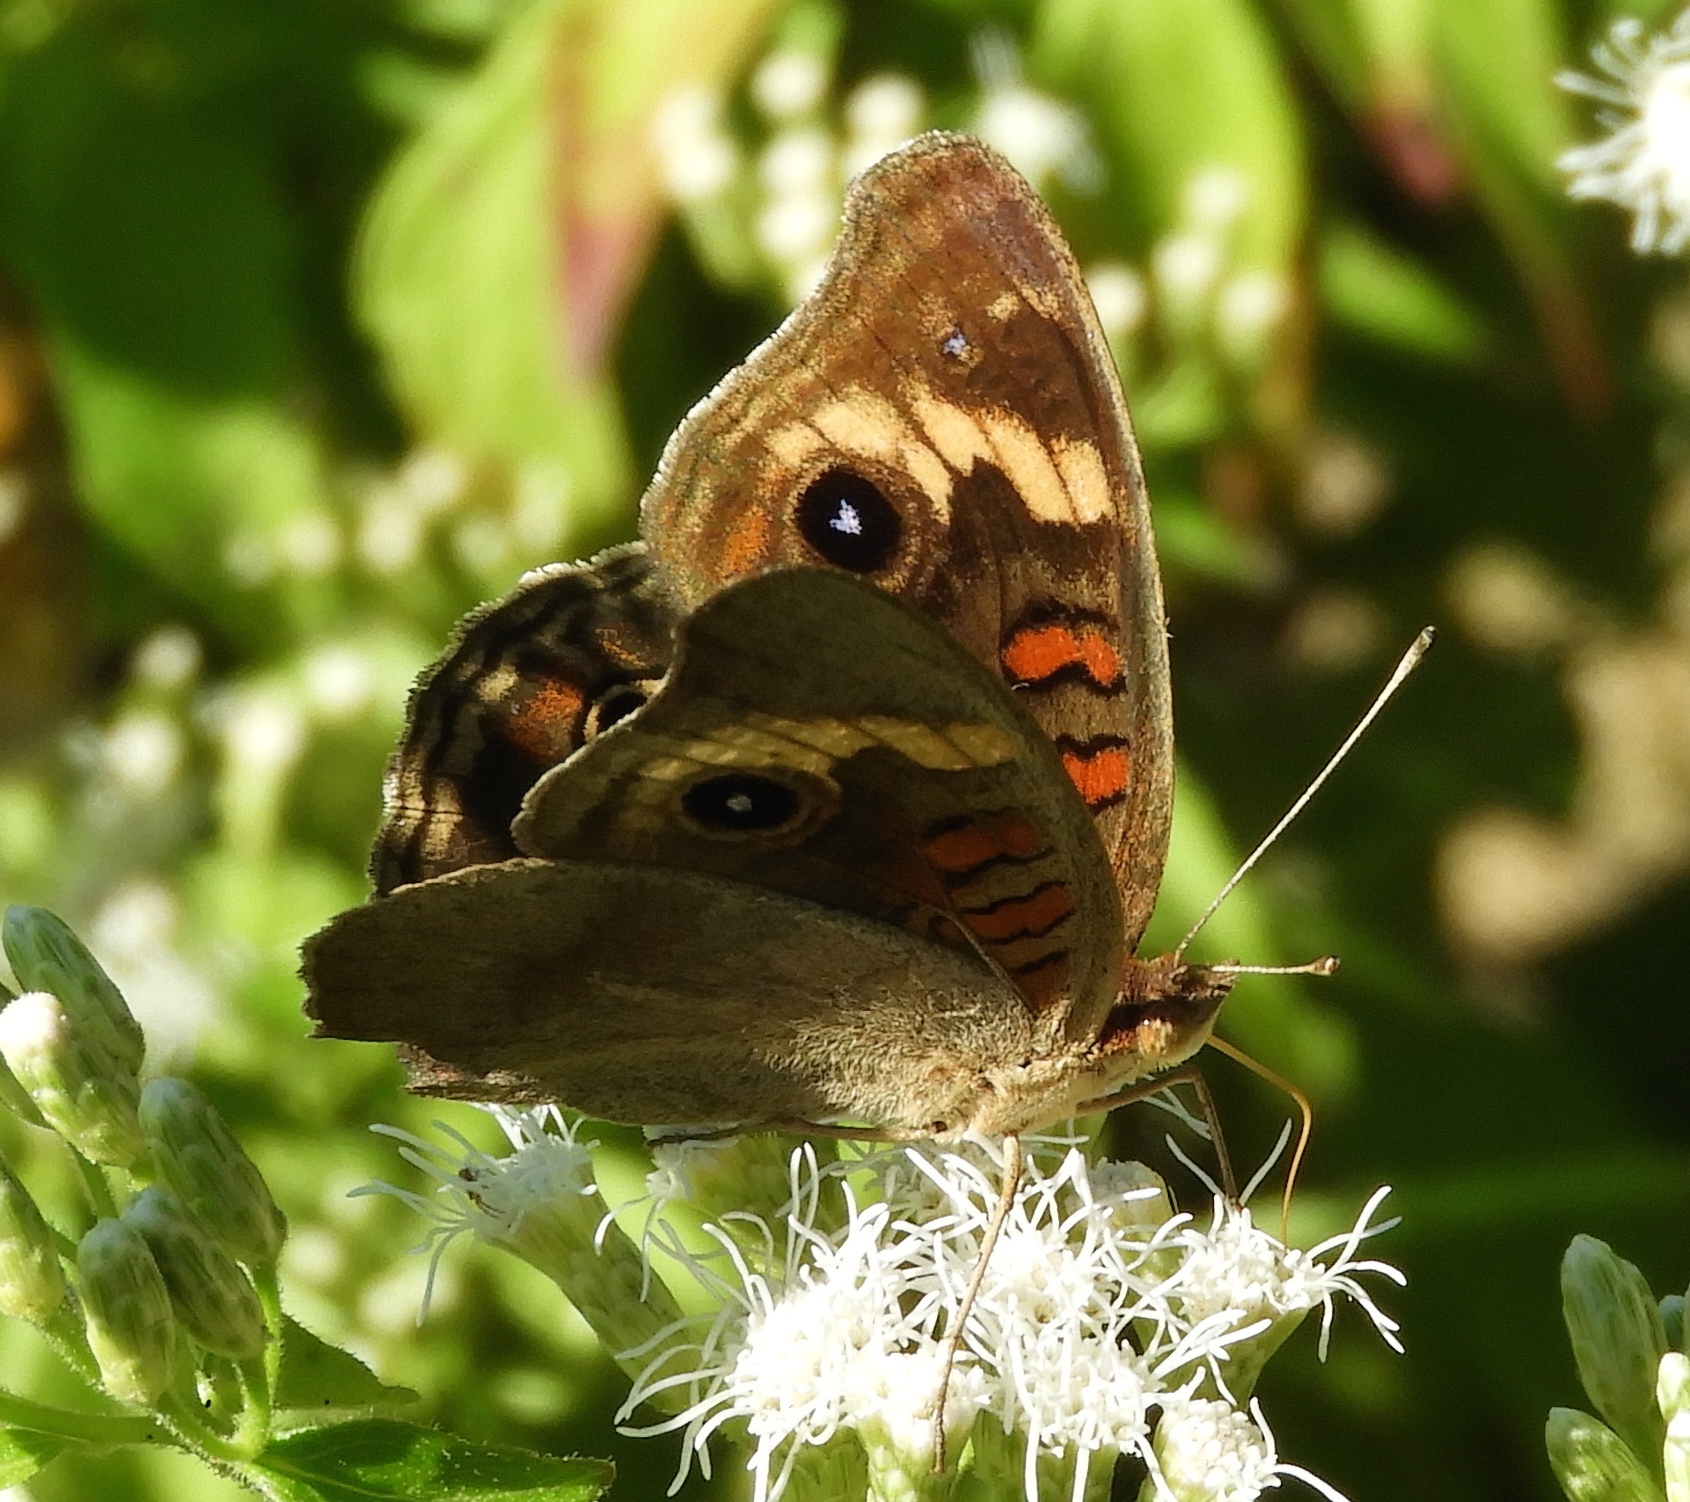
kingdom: Animalia
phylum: Arthropoda
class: Insecta
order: Lepidoptera
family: Nymphalidae
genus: Junonia
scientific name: Junonia coenia
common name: Common buckeye
